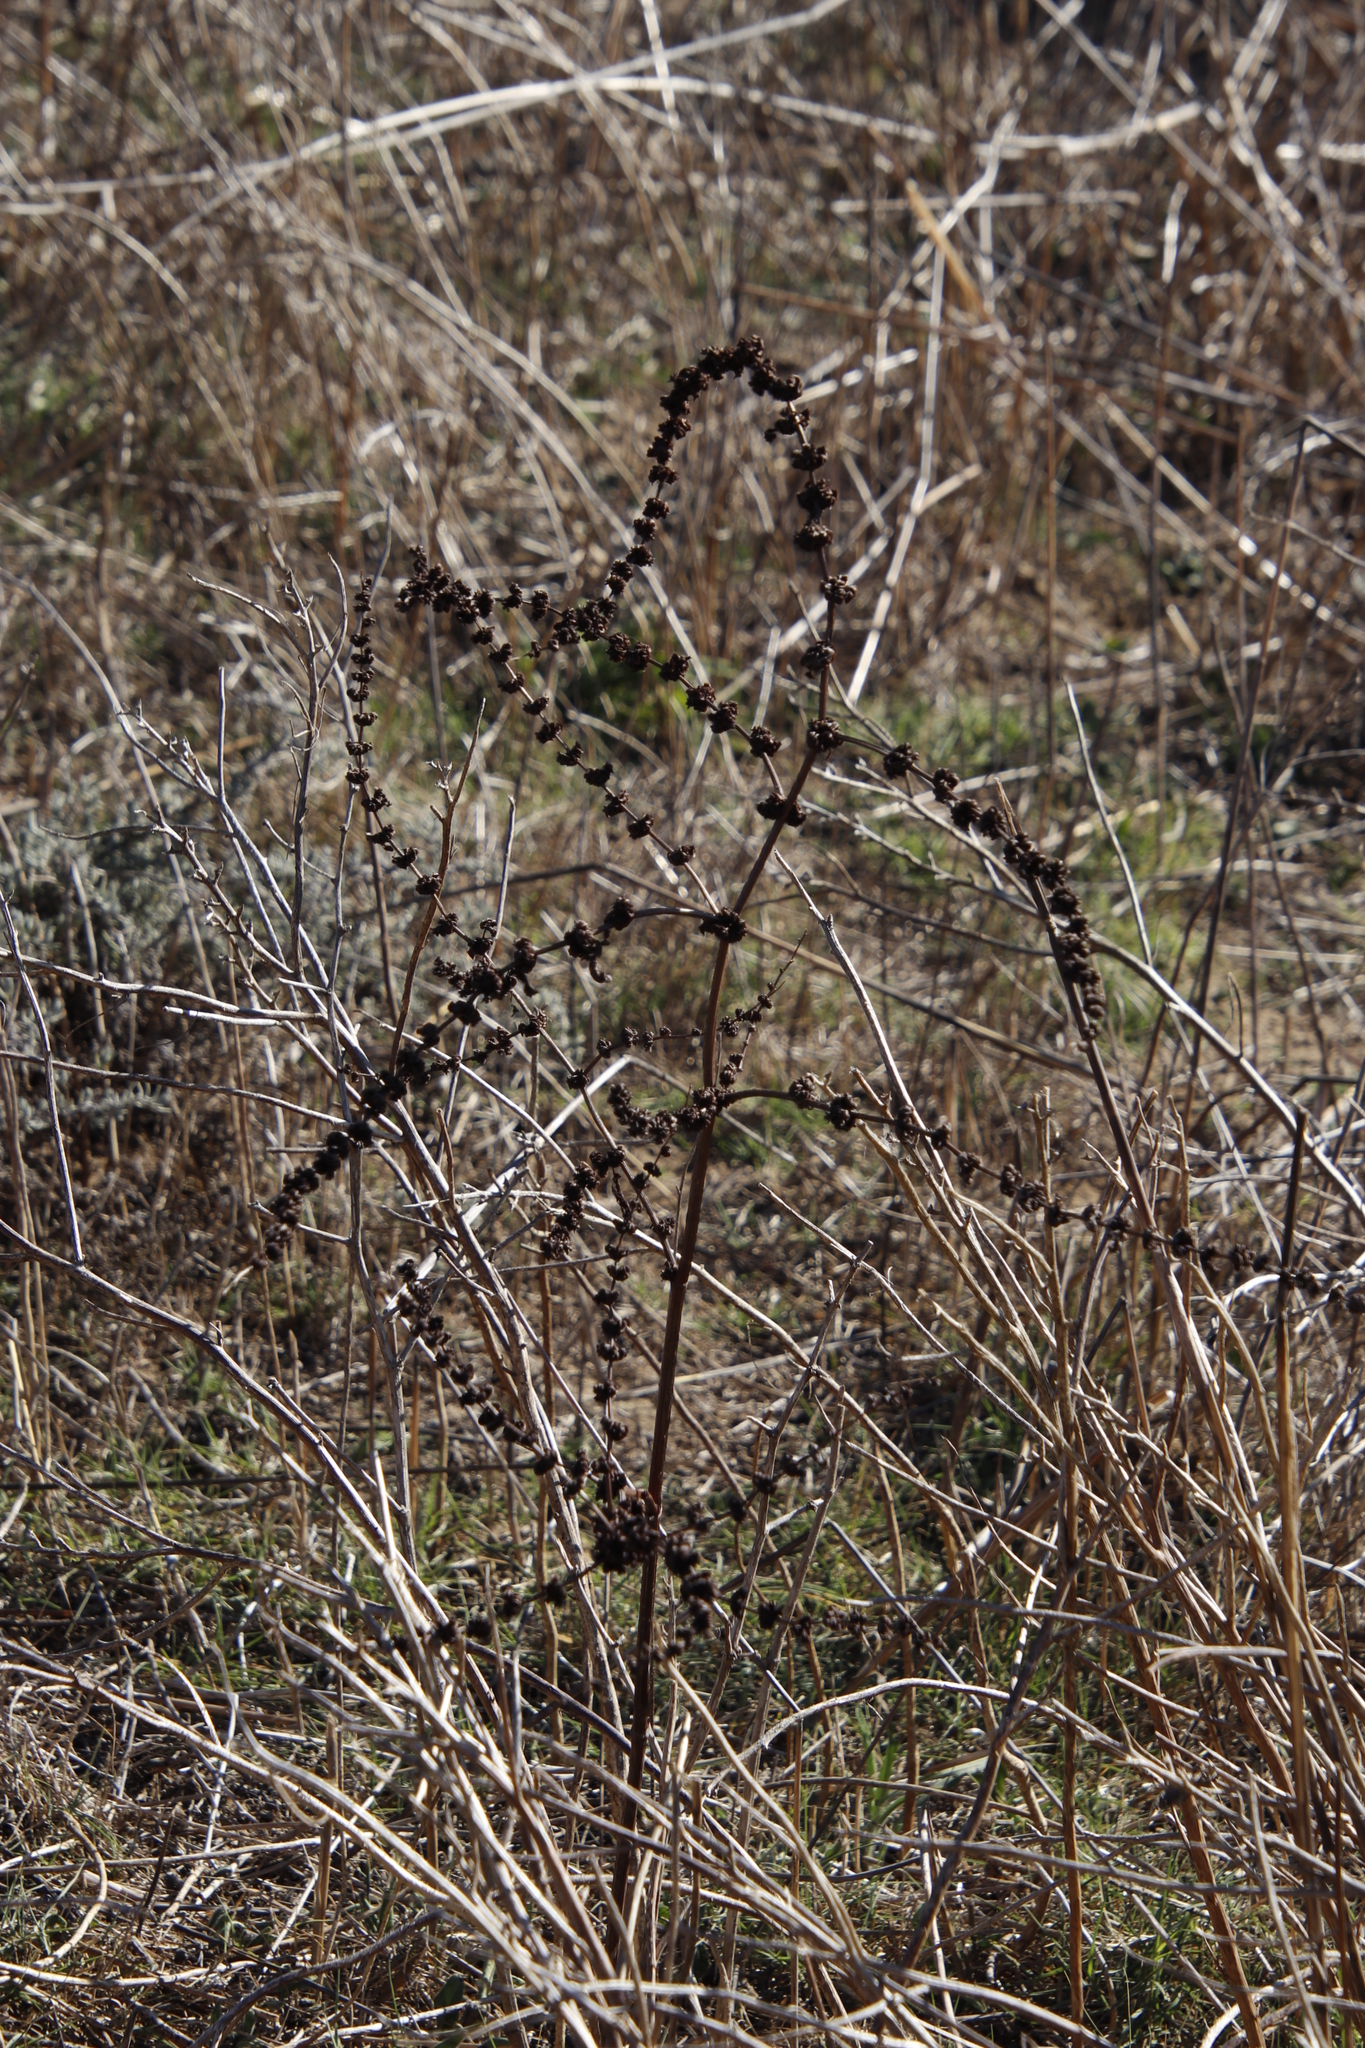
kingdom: Plantae
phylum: Tracheophyta
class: Magnoliopsida
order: Caryophyllales
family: Polygonaceae
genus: Rumex
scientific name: Rumex crispus
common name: Curled dock
